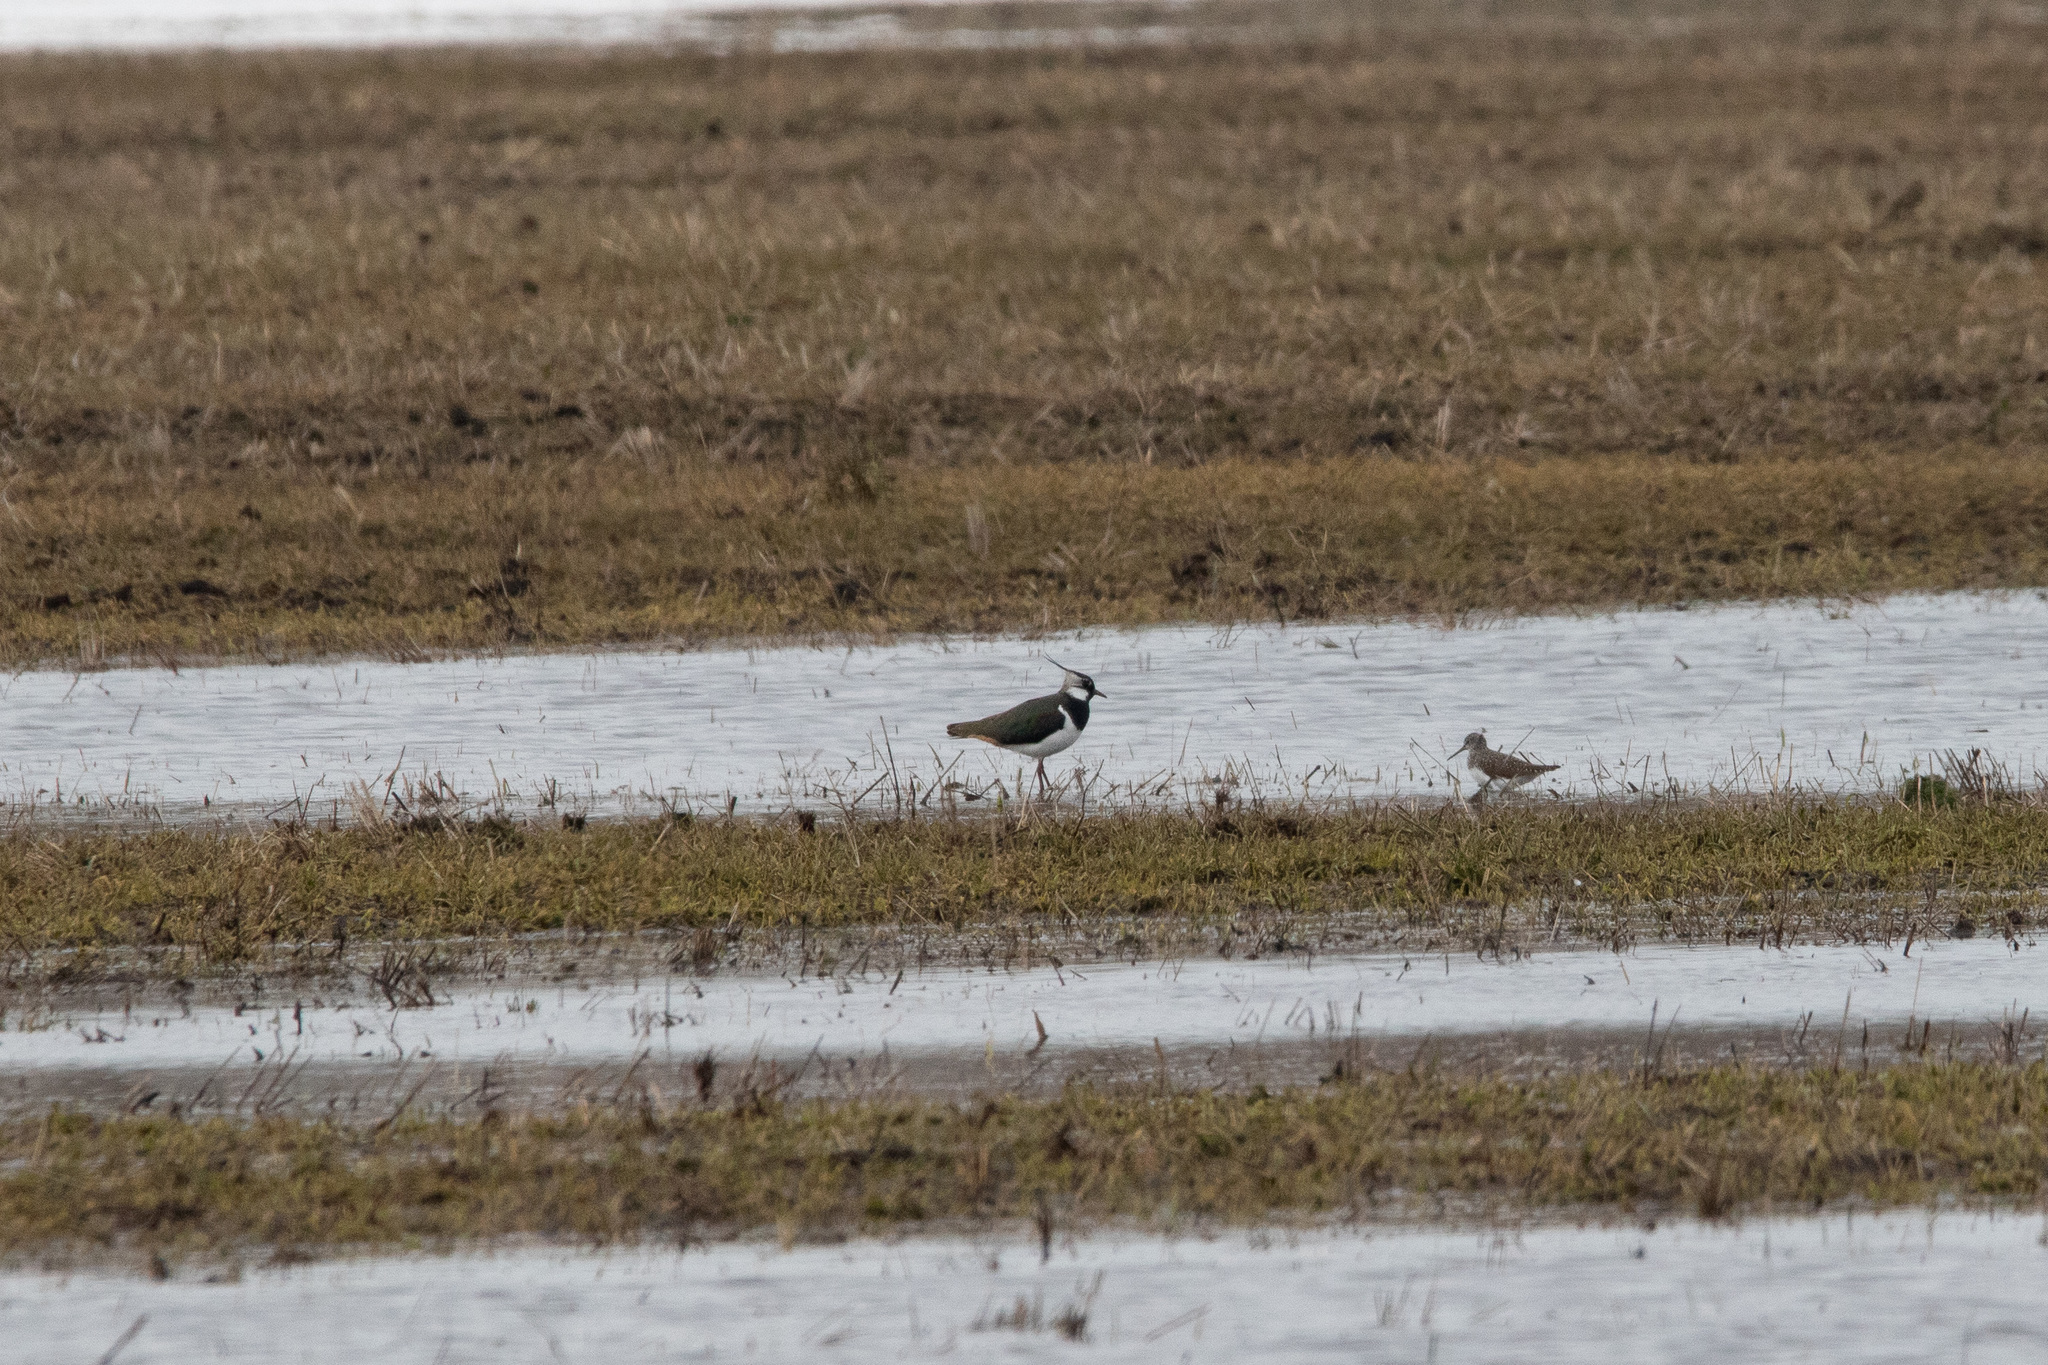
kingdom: Animalia
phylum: Chordata
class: Aves
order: Charadriiformes
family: Charadriidae
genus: Vanellus
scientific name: Vanellus vanellus
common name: Northern lapwing
